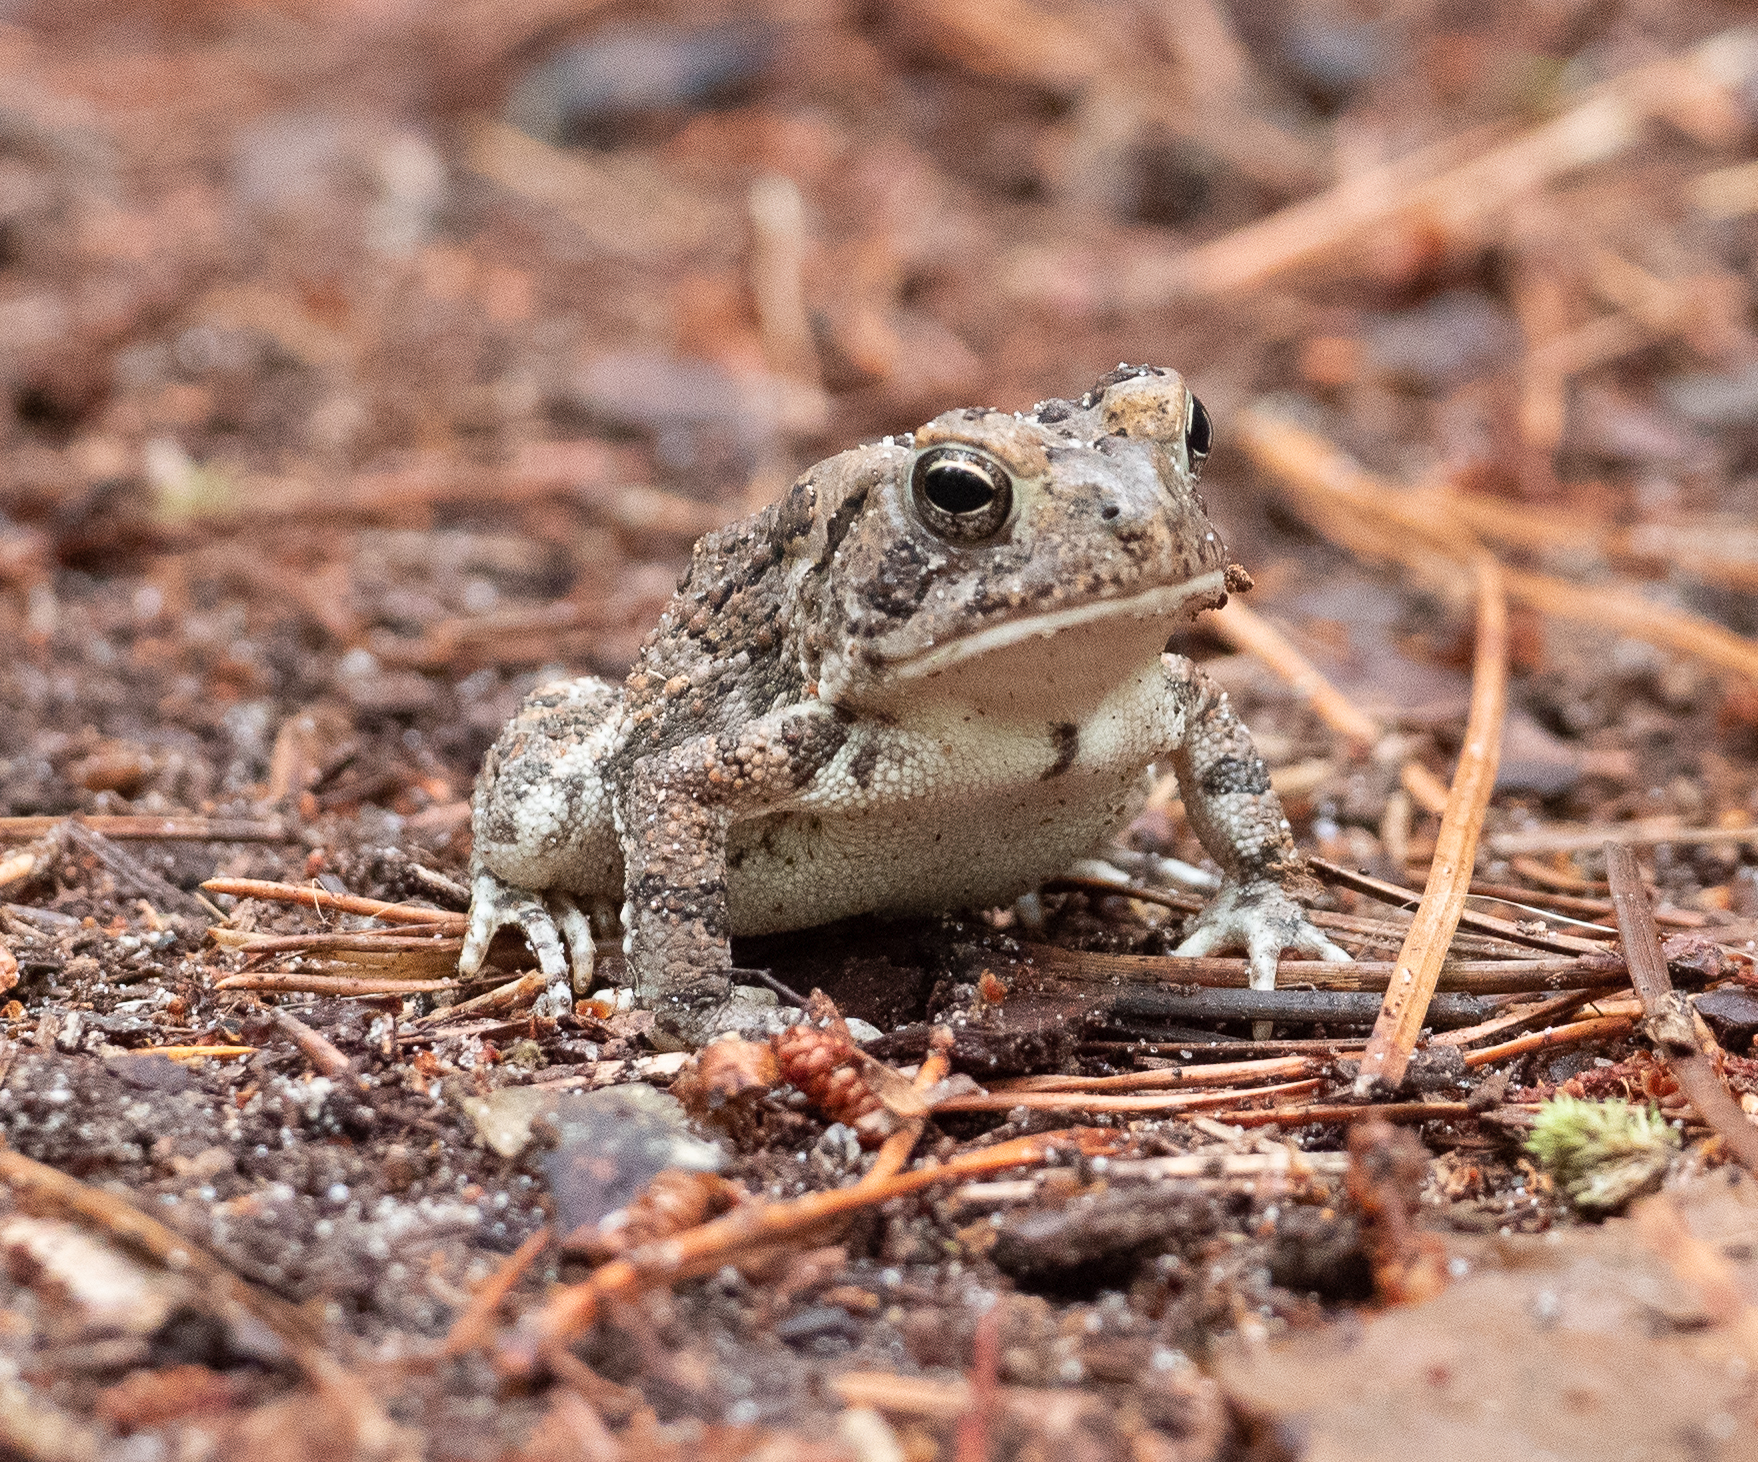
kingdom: Animalia
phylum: Chordata
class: Amphibia
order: Anura
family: Bufonidae
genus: Anaxyrus
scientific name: Anaxyrus fowleri
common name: Fowler's toad
